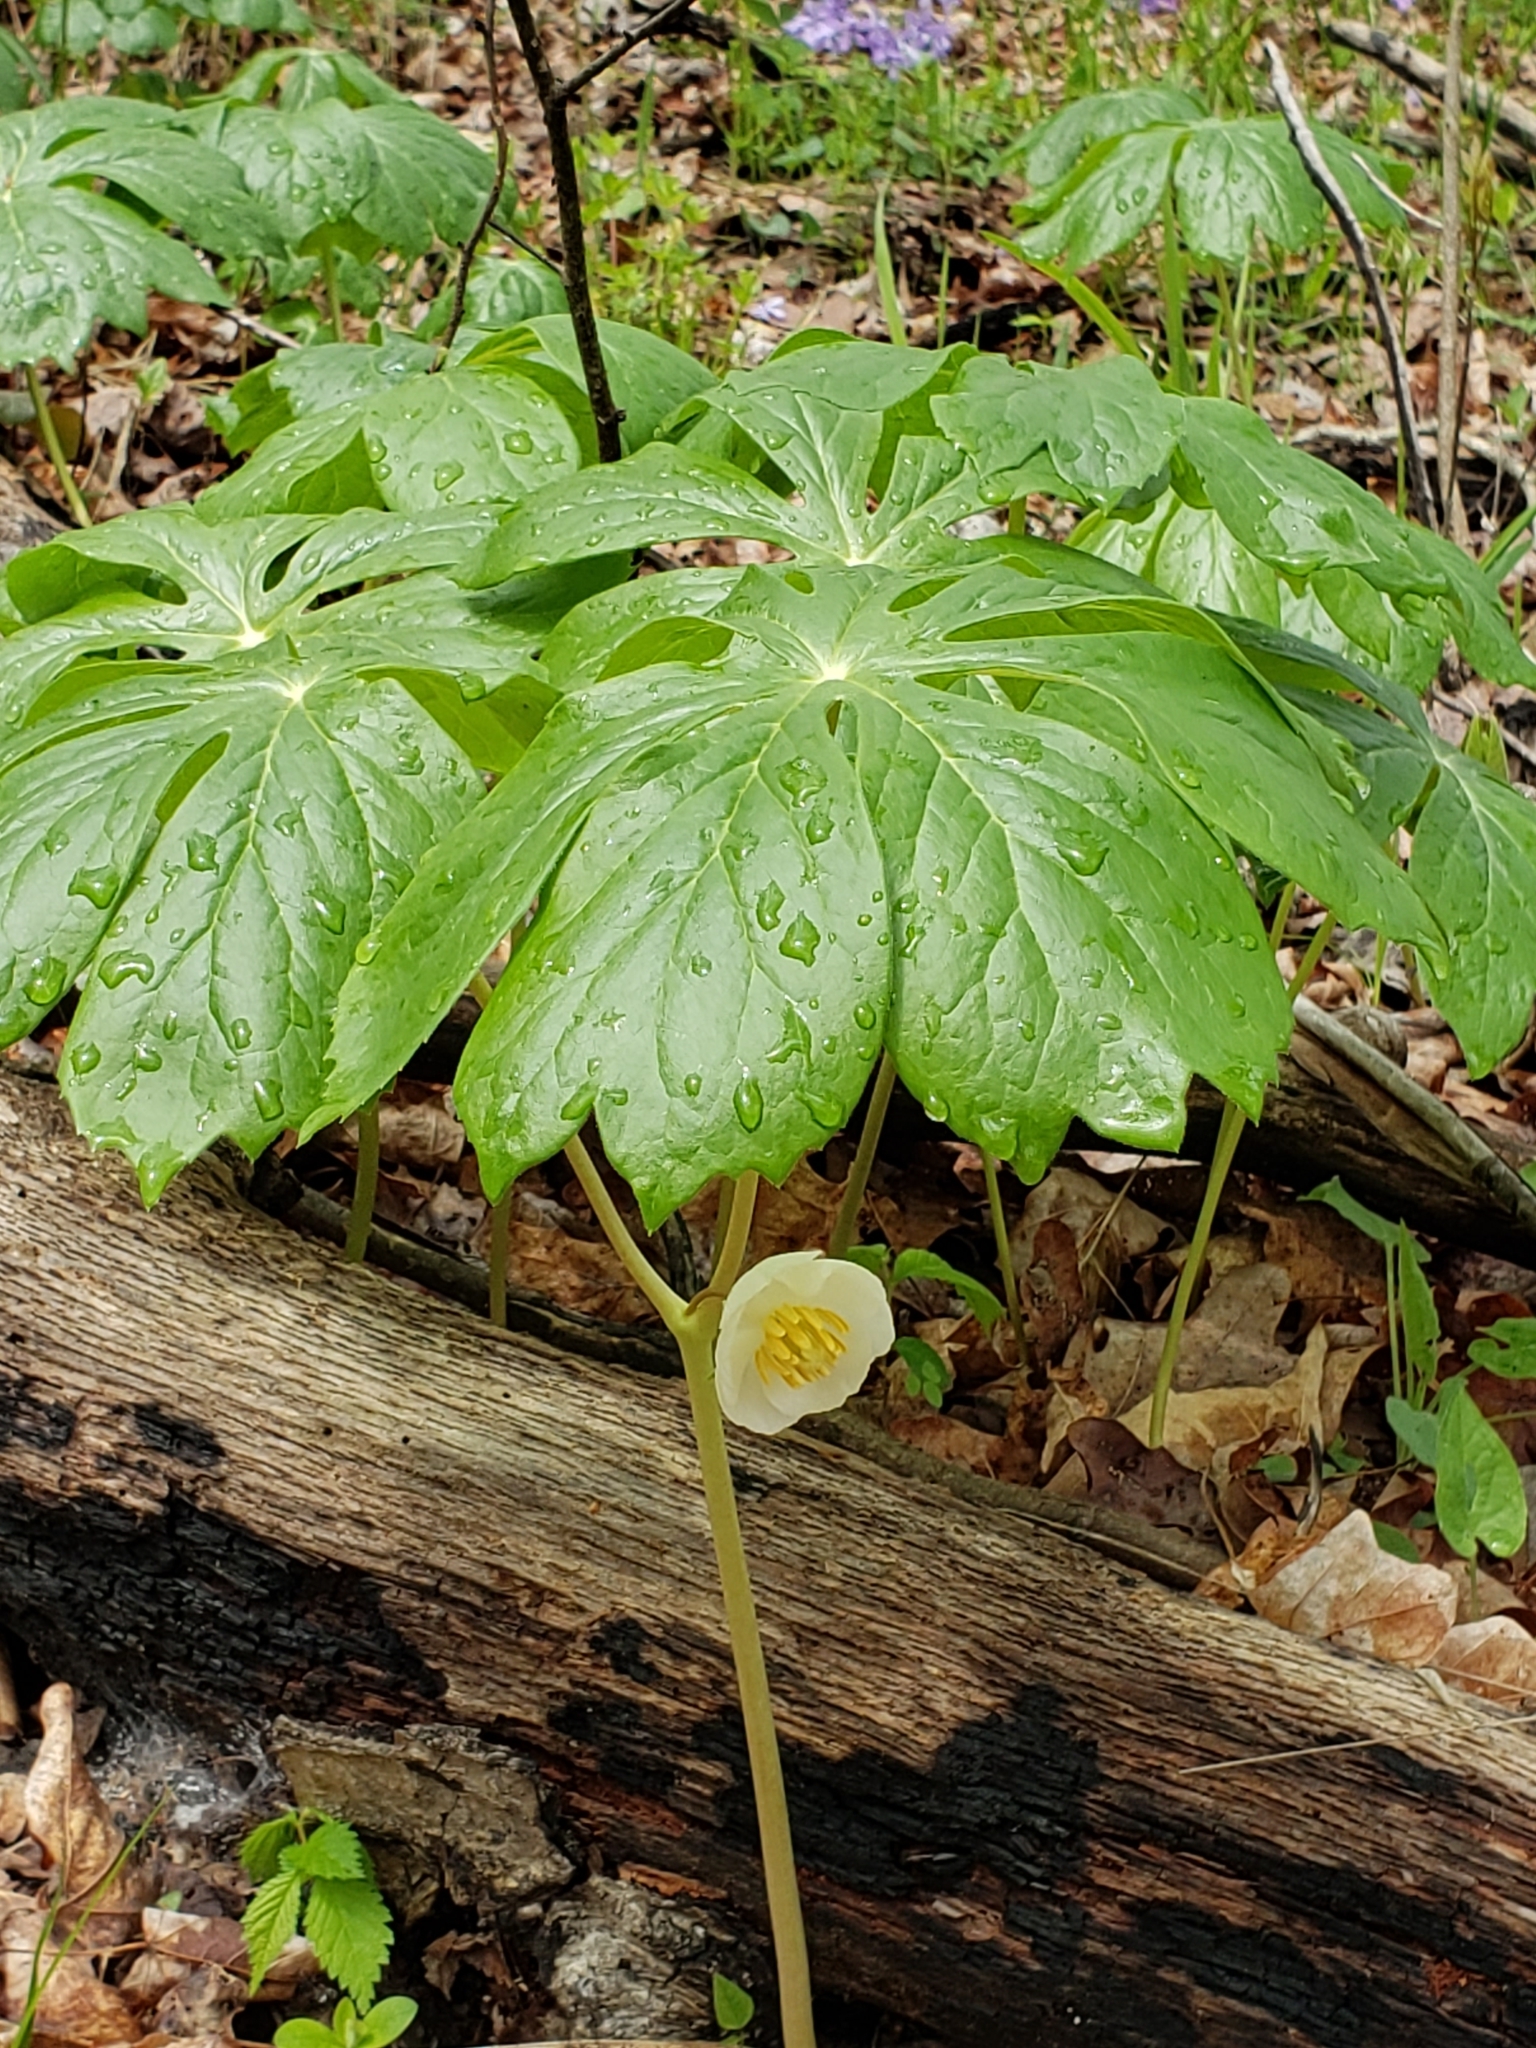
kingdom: Plantae
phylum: Tracheophyta
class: Magnoliopsida
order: Ranunculales
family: Berberidaceae
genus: Podophyllum
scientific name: Podophyllum peltatum
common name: Wild mandrake
